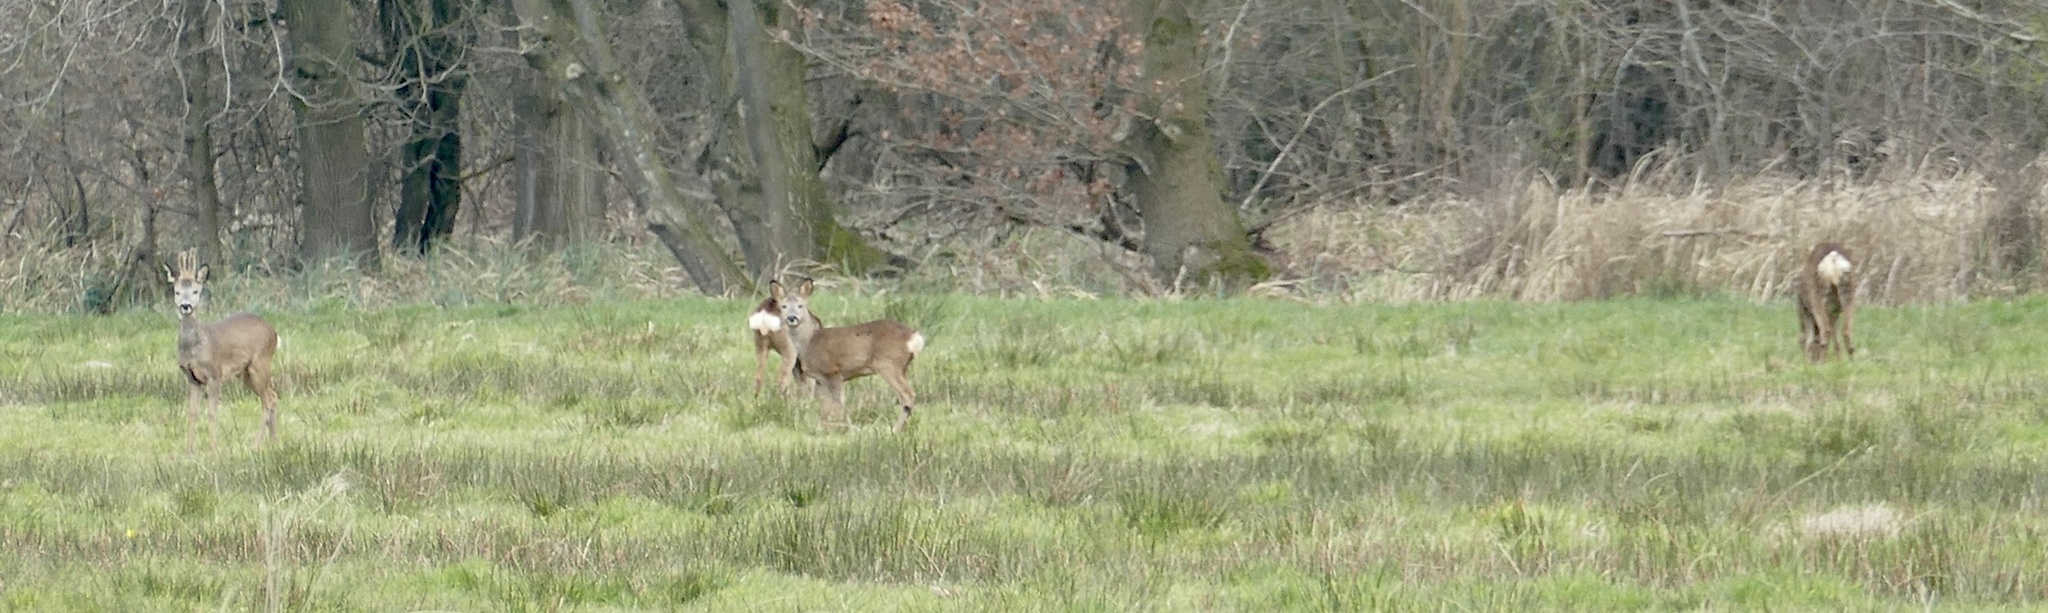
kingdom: Animalia
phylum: Chordata
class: Mammalia
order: Artiodactyla
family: Cervidae
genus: Capreolus
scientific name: Capreolus capreolus
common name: Western roe deer
